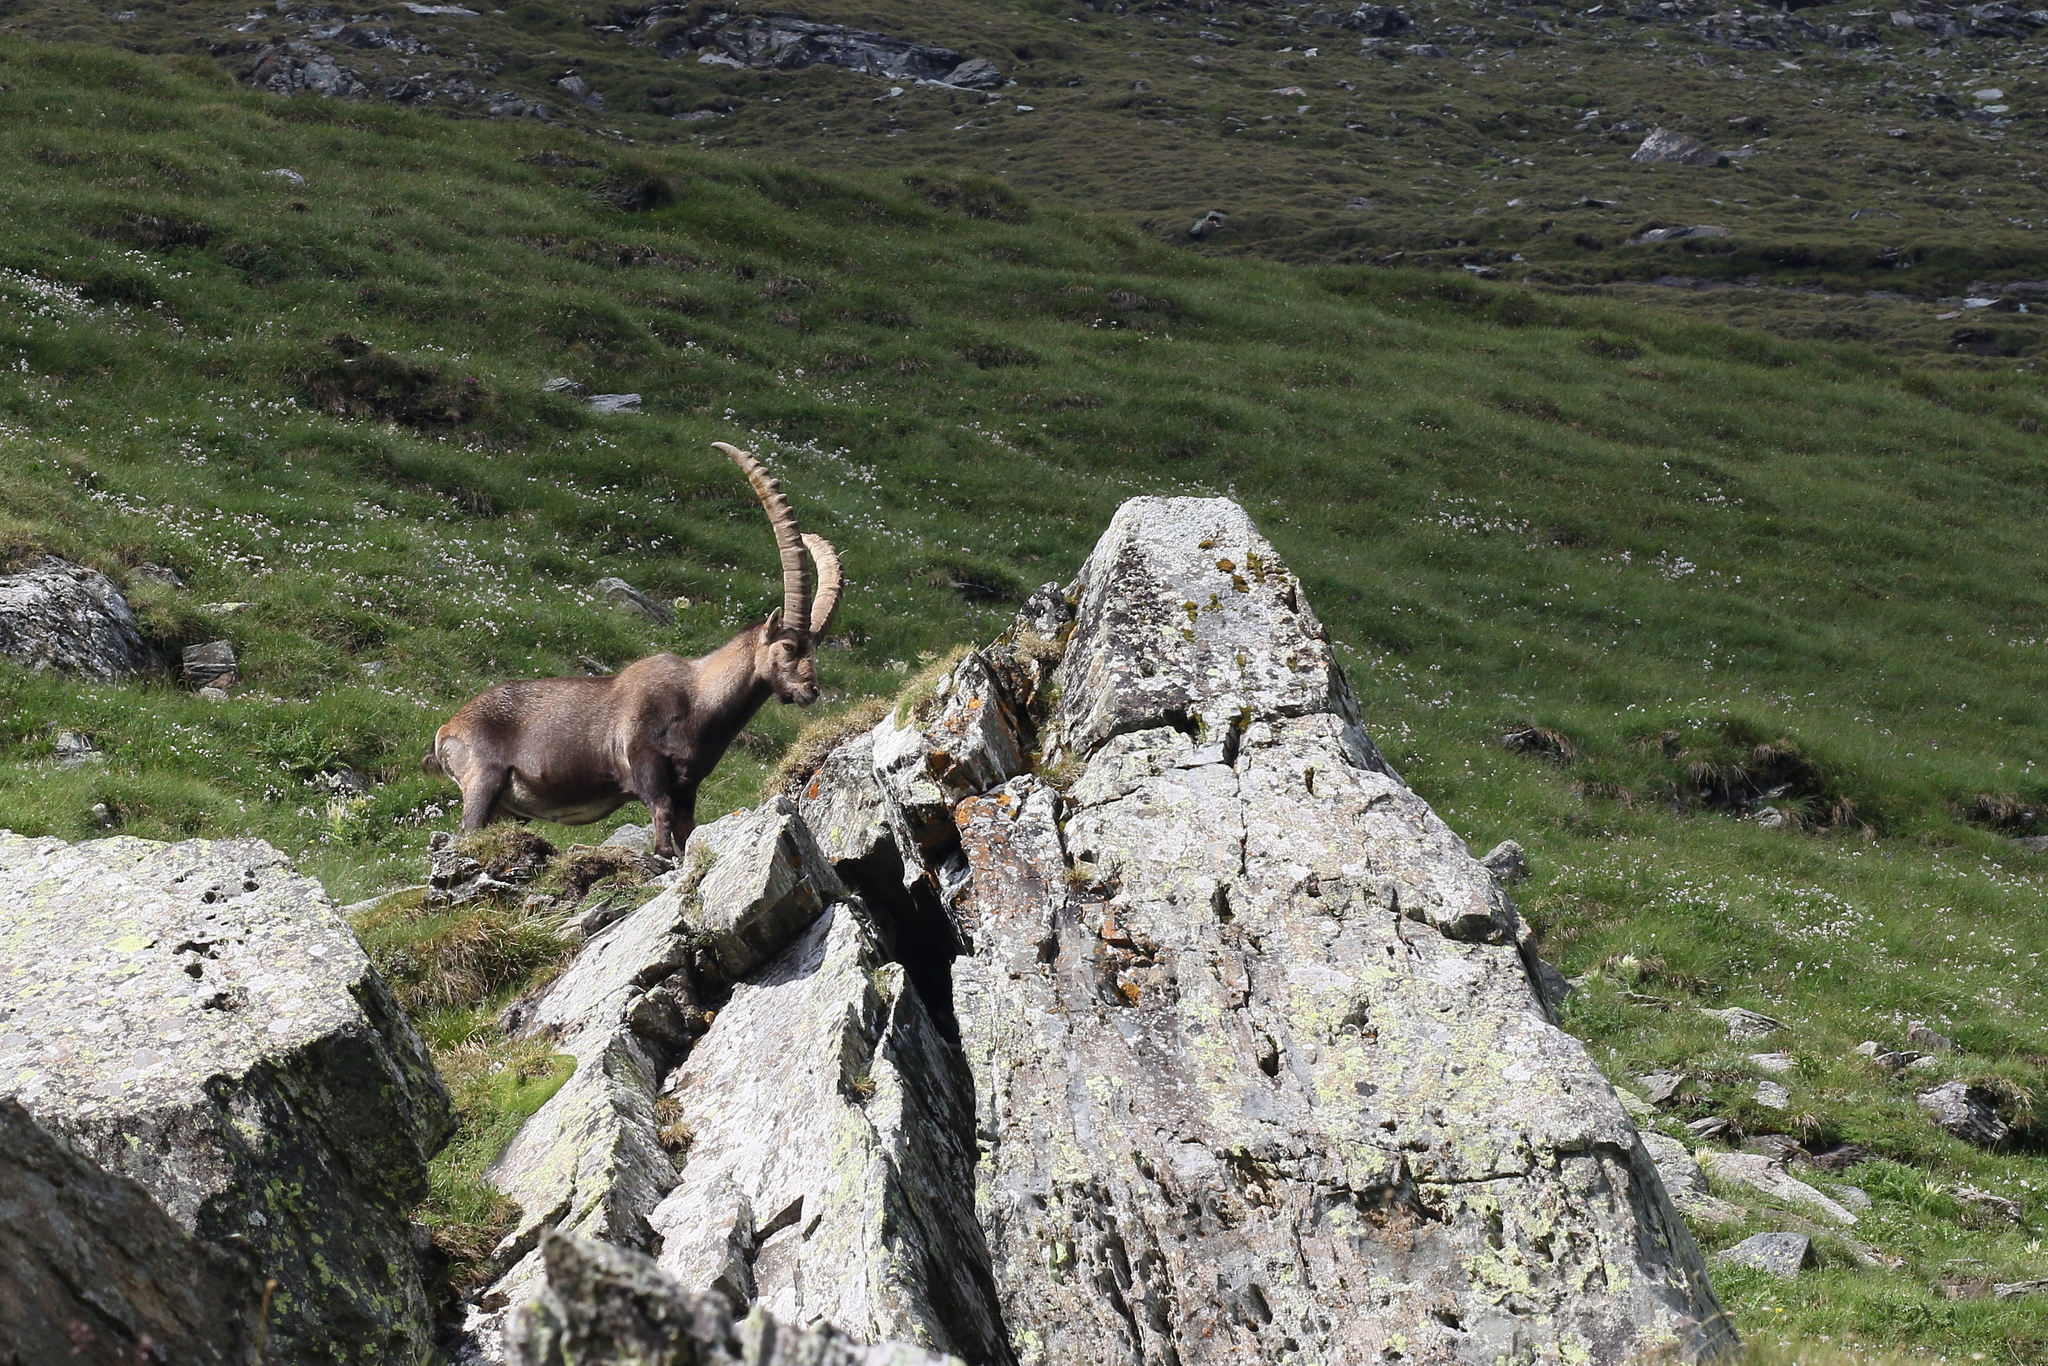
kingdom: Animalia
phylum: Chordata
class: Mammalia
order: Artiodactyla
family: Bovidae
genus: Capra
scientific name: Capra ibex
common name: Alpine ibex
